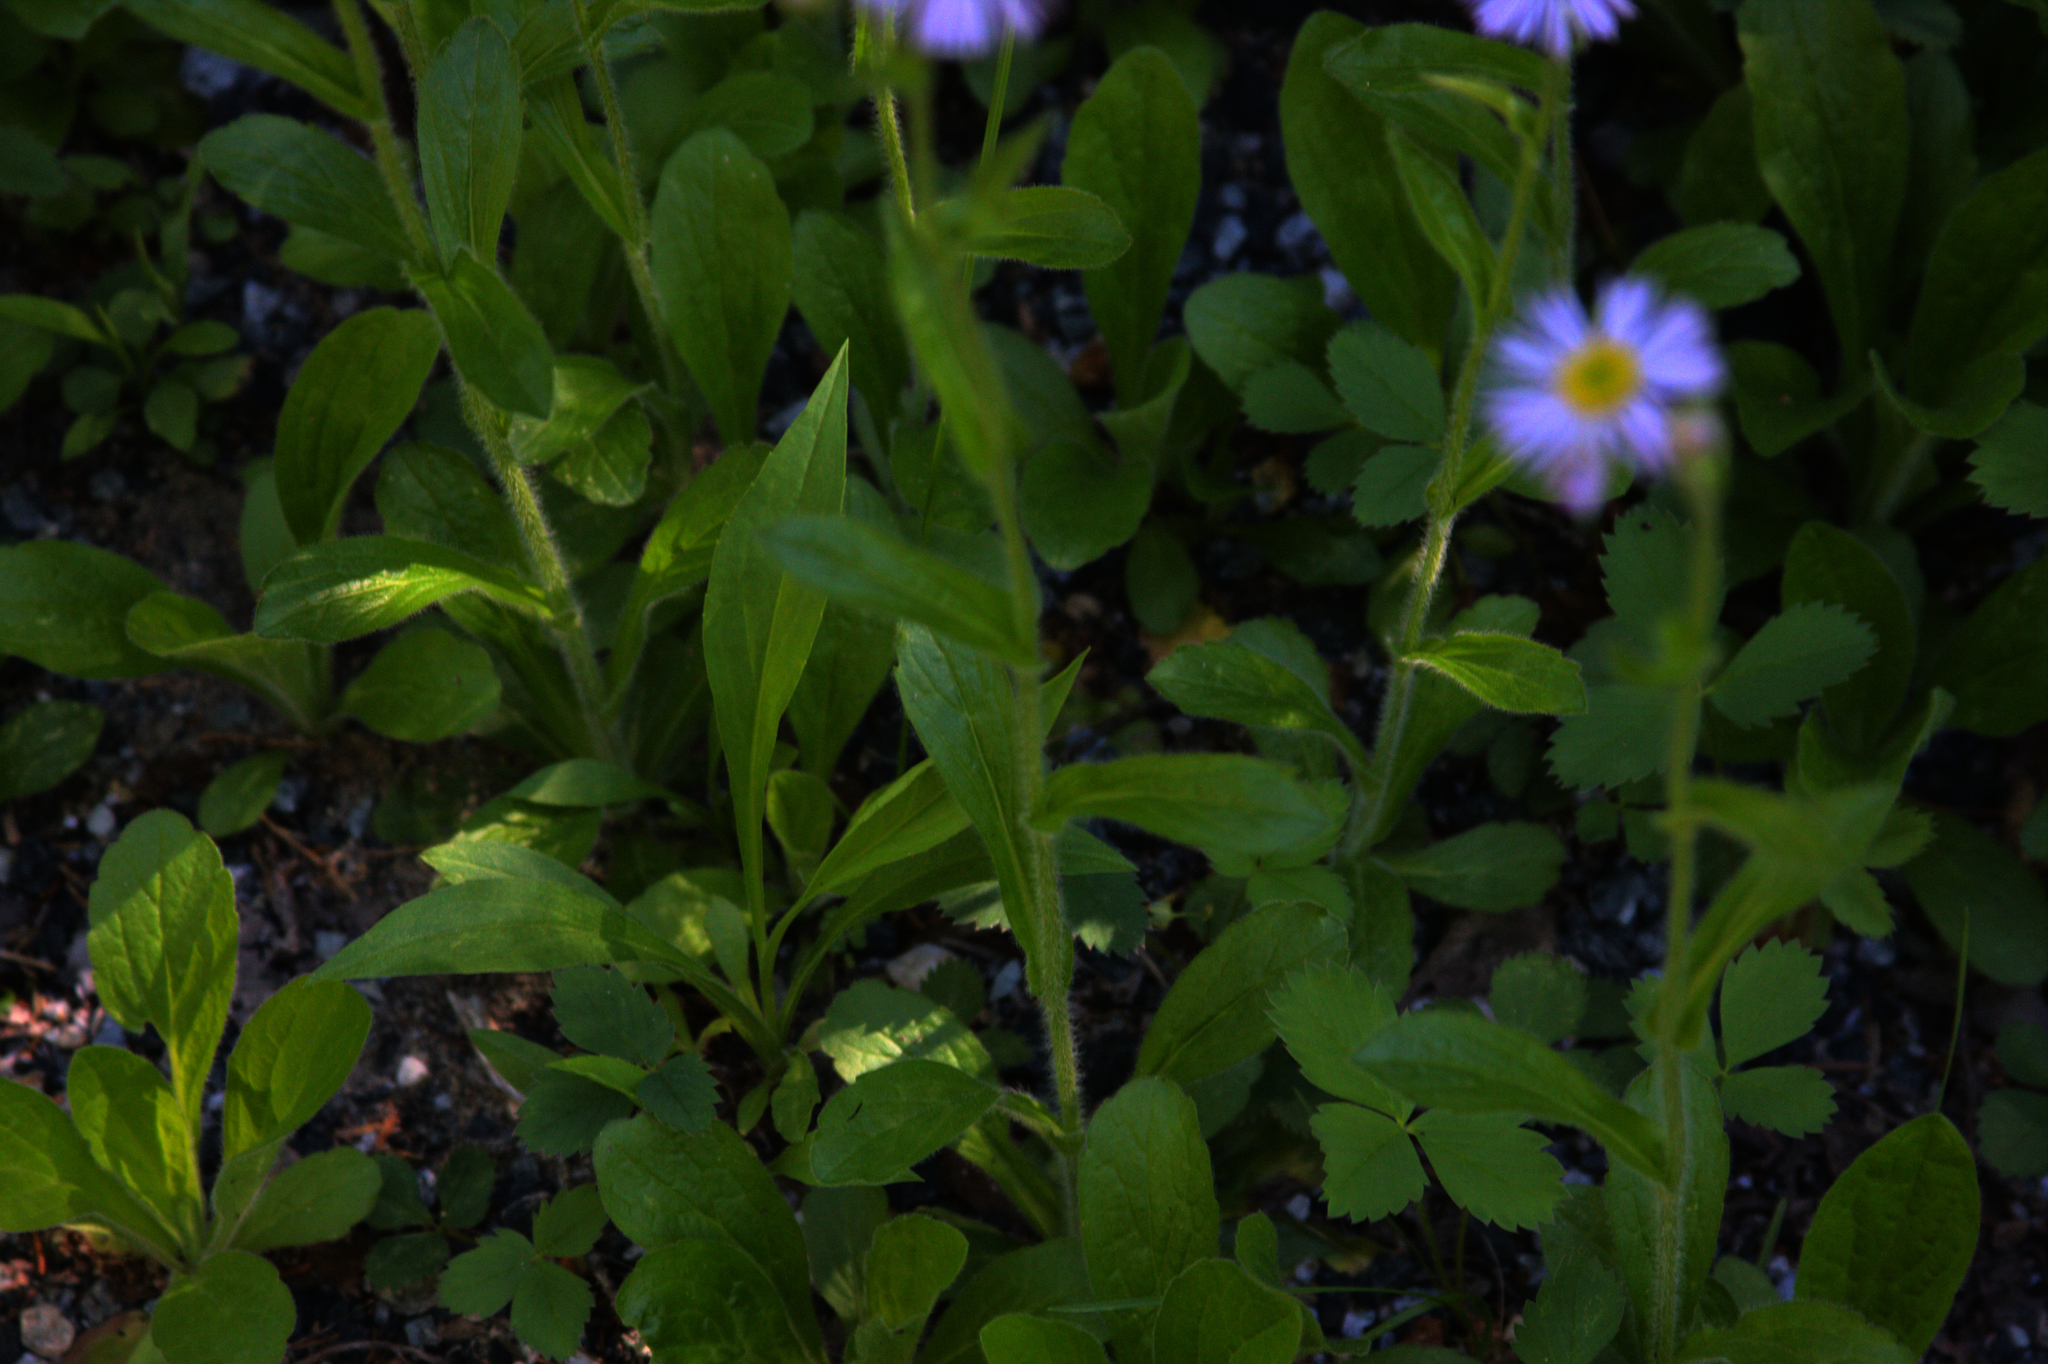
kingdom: Plantae
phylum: Tracheophyta
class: Magnoliopsida
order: Asterales
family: Asteraceae
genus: Erigeron
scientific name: Erigeron pulchellus
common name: Hairy fleabane
